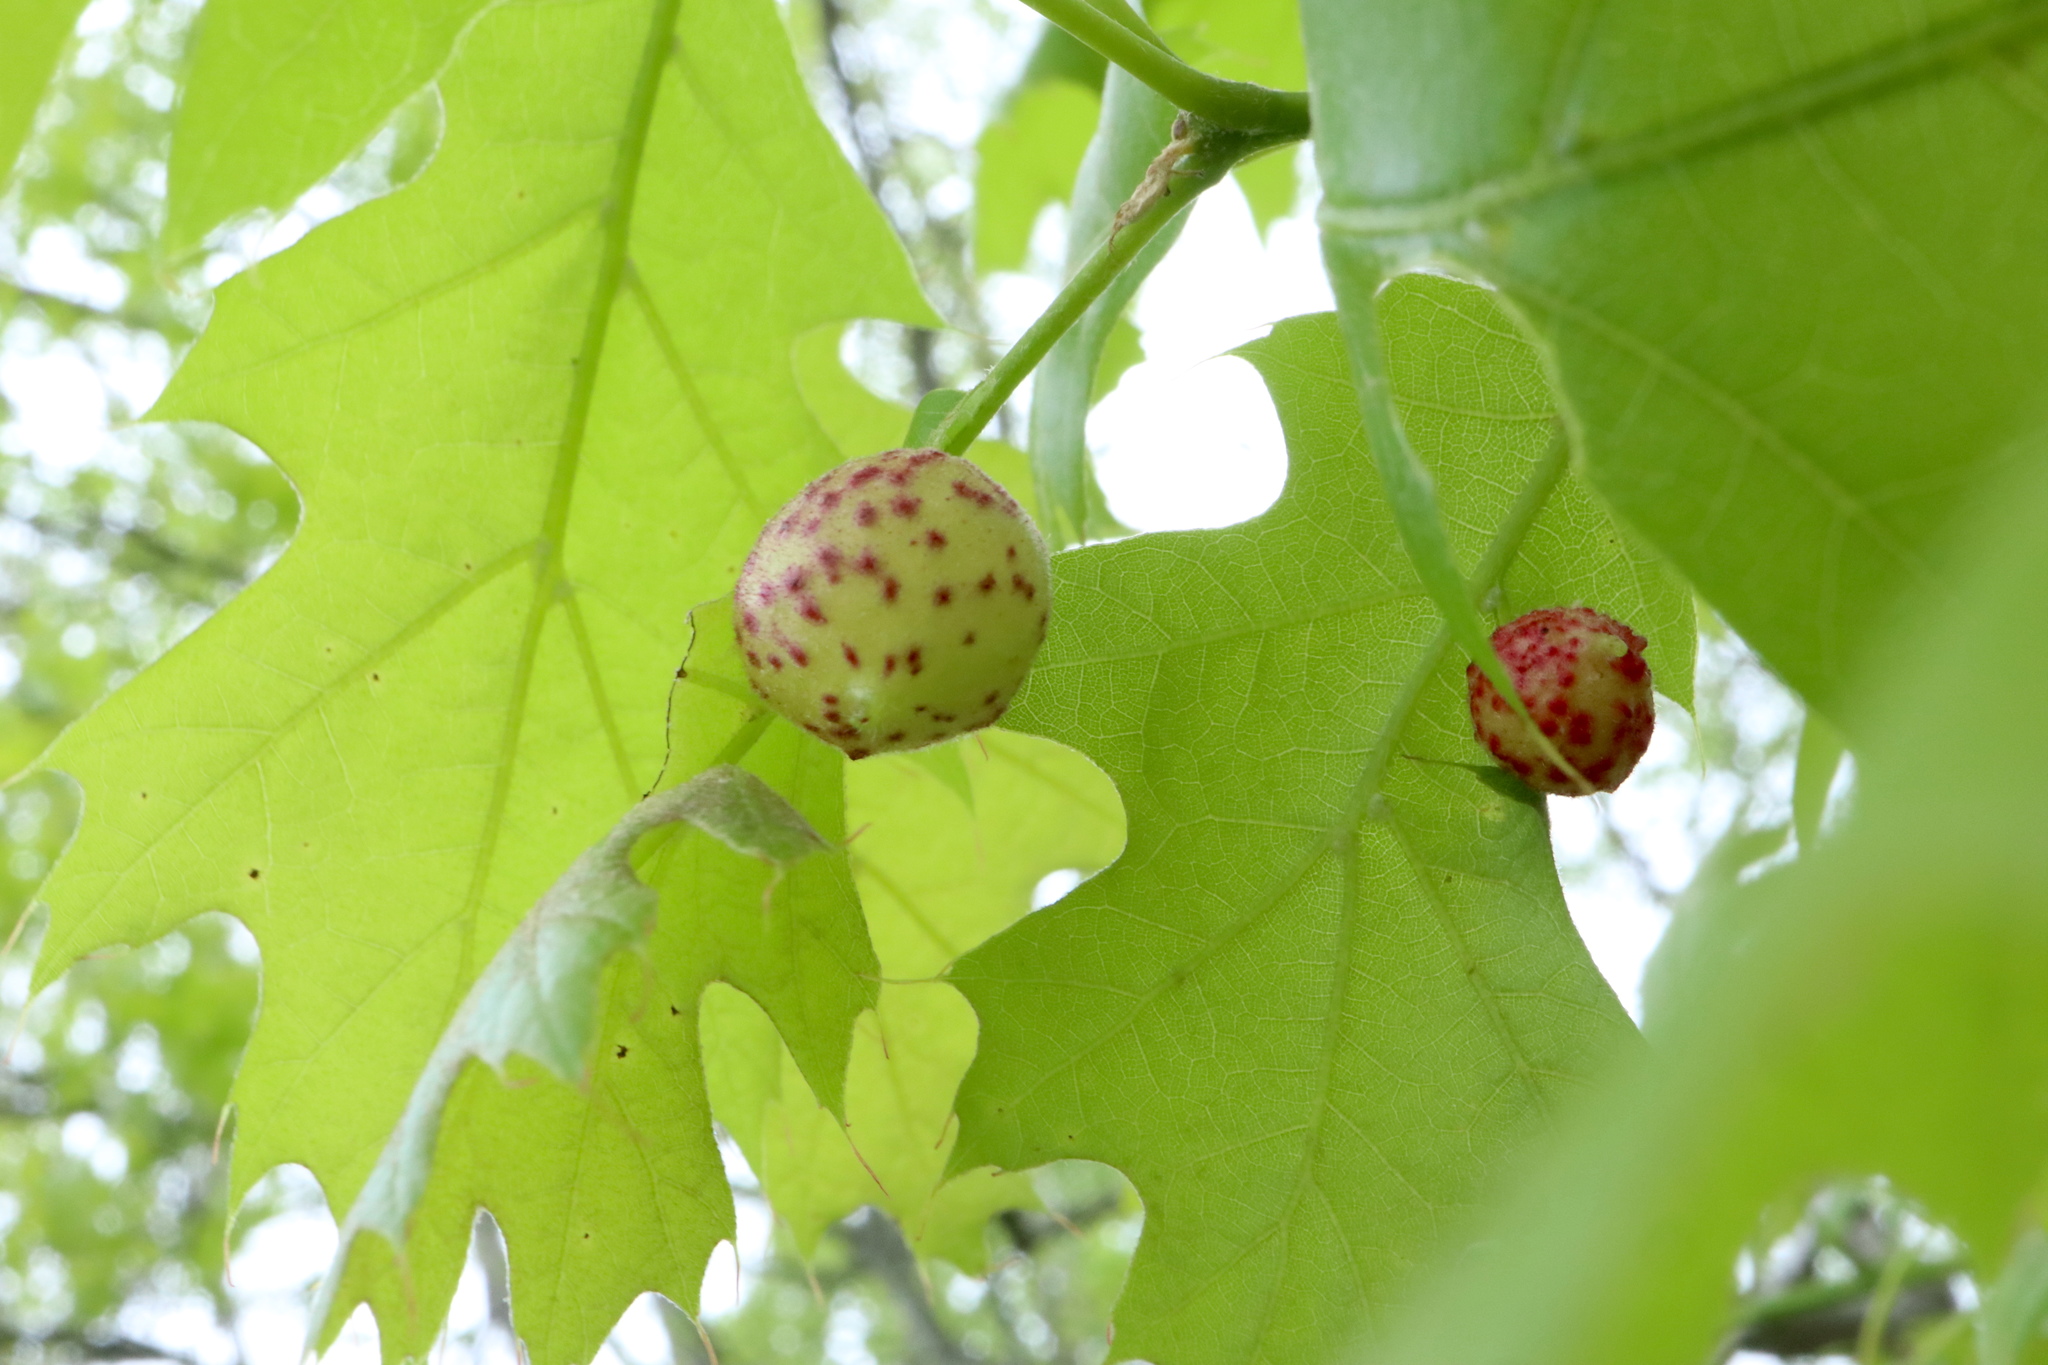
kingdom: Animalia
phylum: Arthropoda
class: Insecta
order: Hymenoptera
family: Cynipidae
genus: Amphibolips
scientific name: Amphibolips
